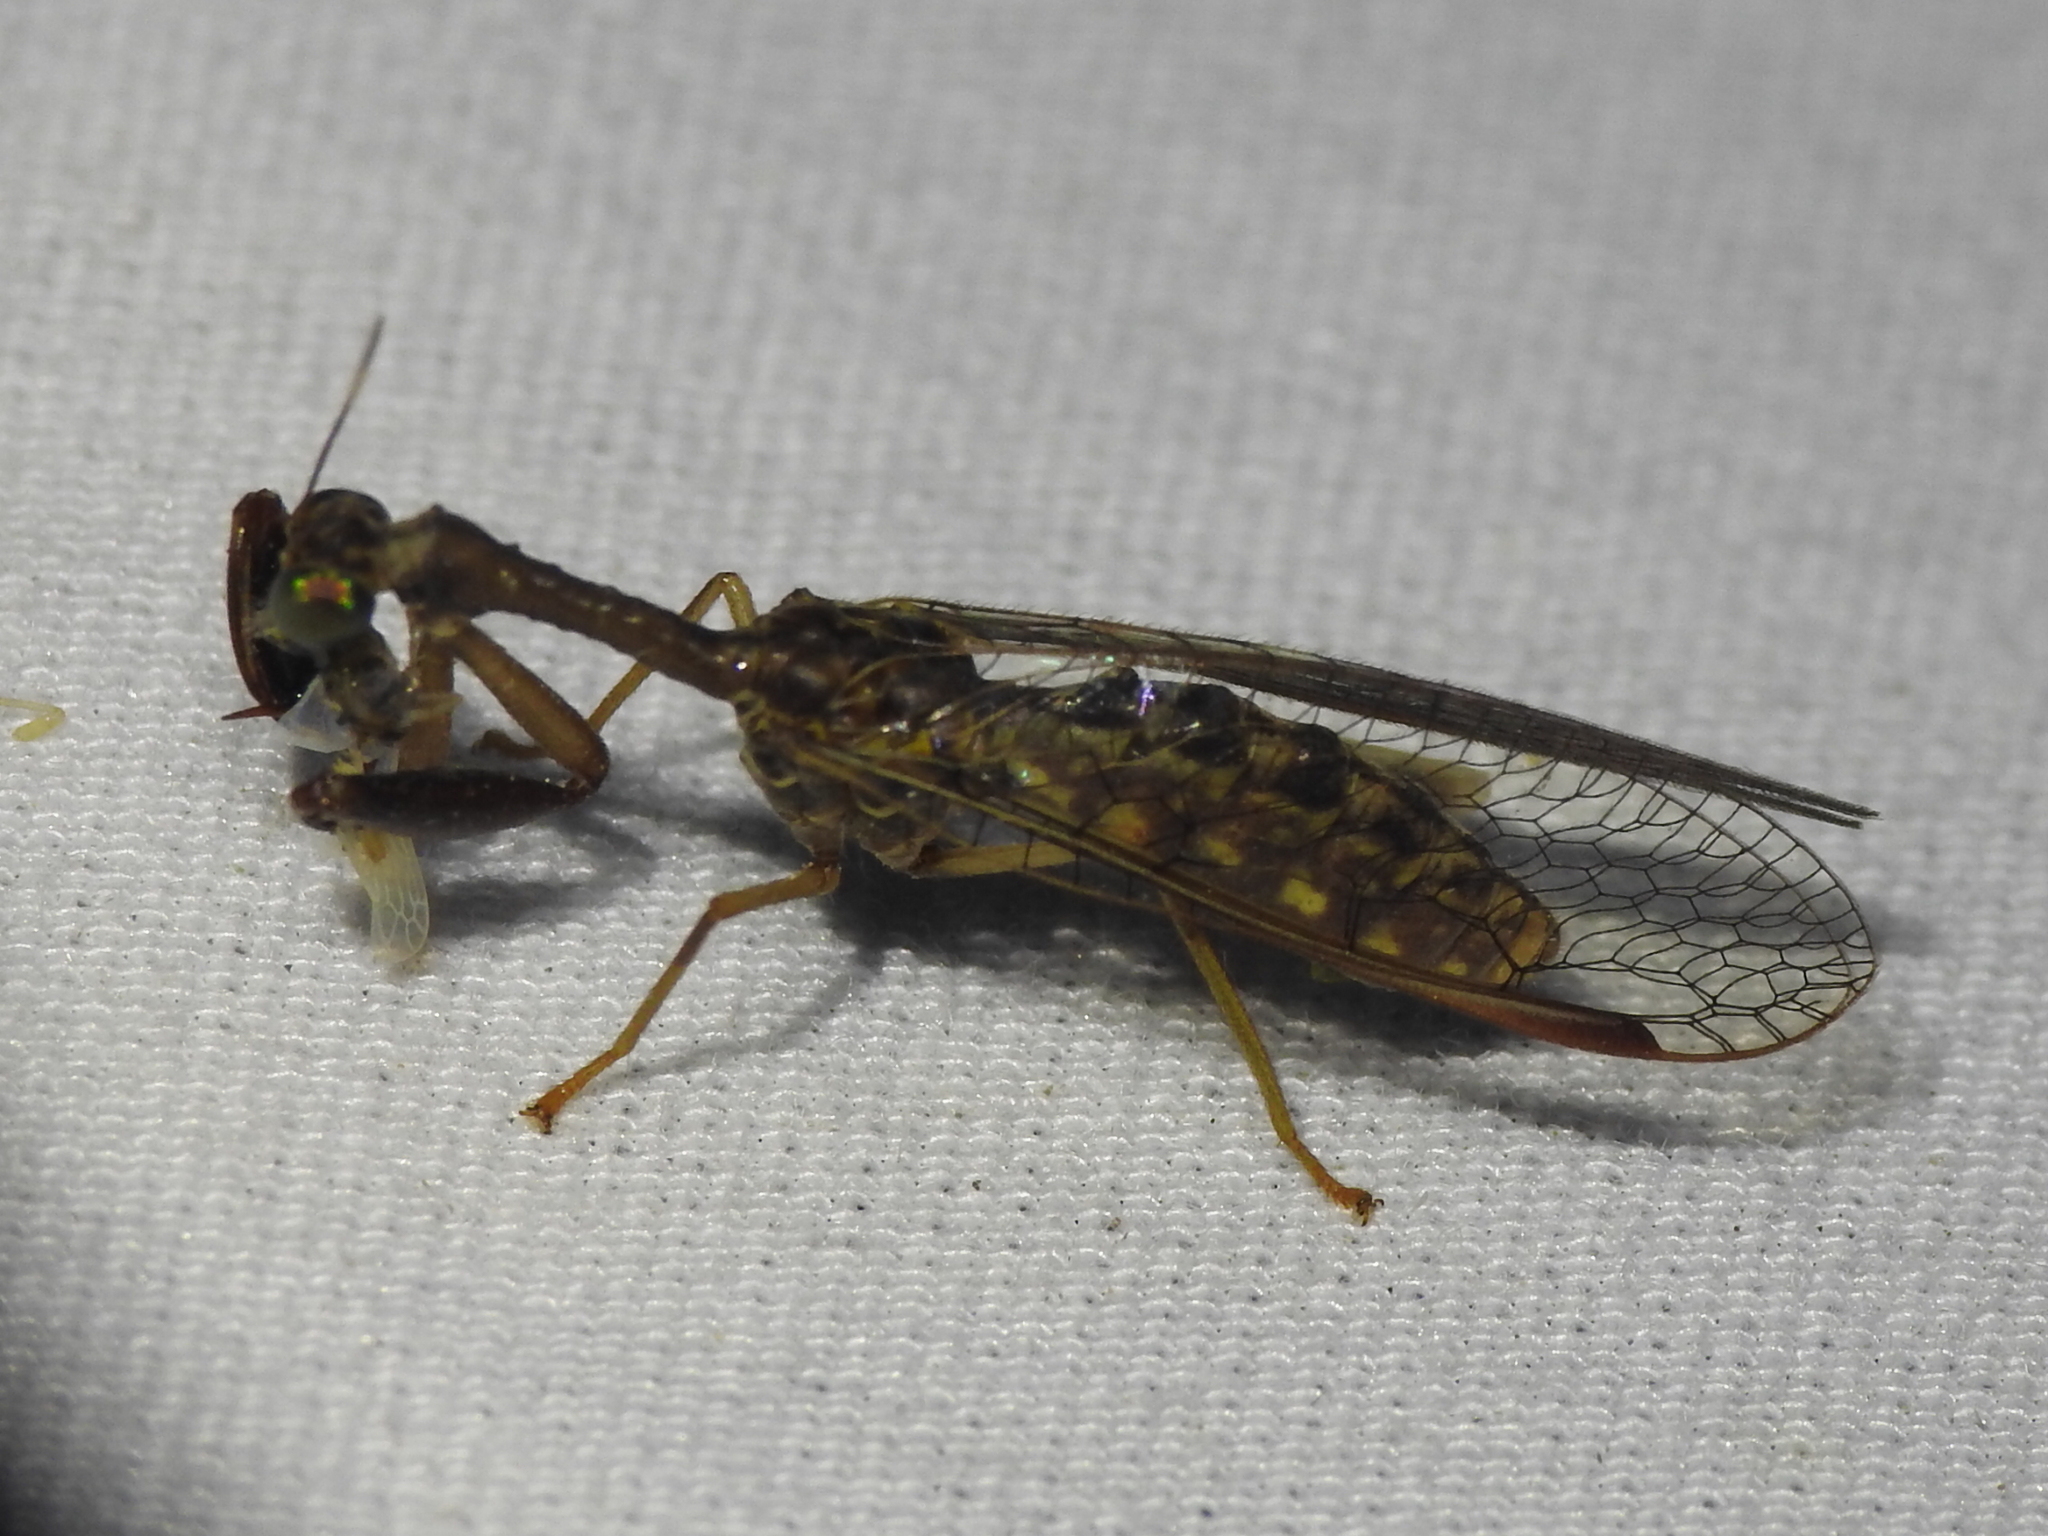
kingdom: Animalia
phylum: Arthropoda
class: Insecta
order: Neuroptera
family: Mantispidae
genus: Dicromantispa
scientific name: Dicromantispa sayi
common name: Say's mantidfly
